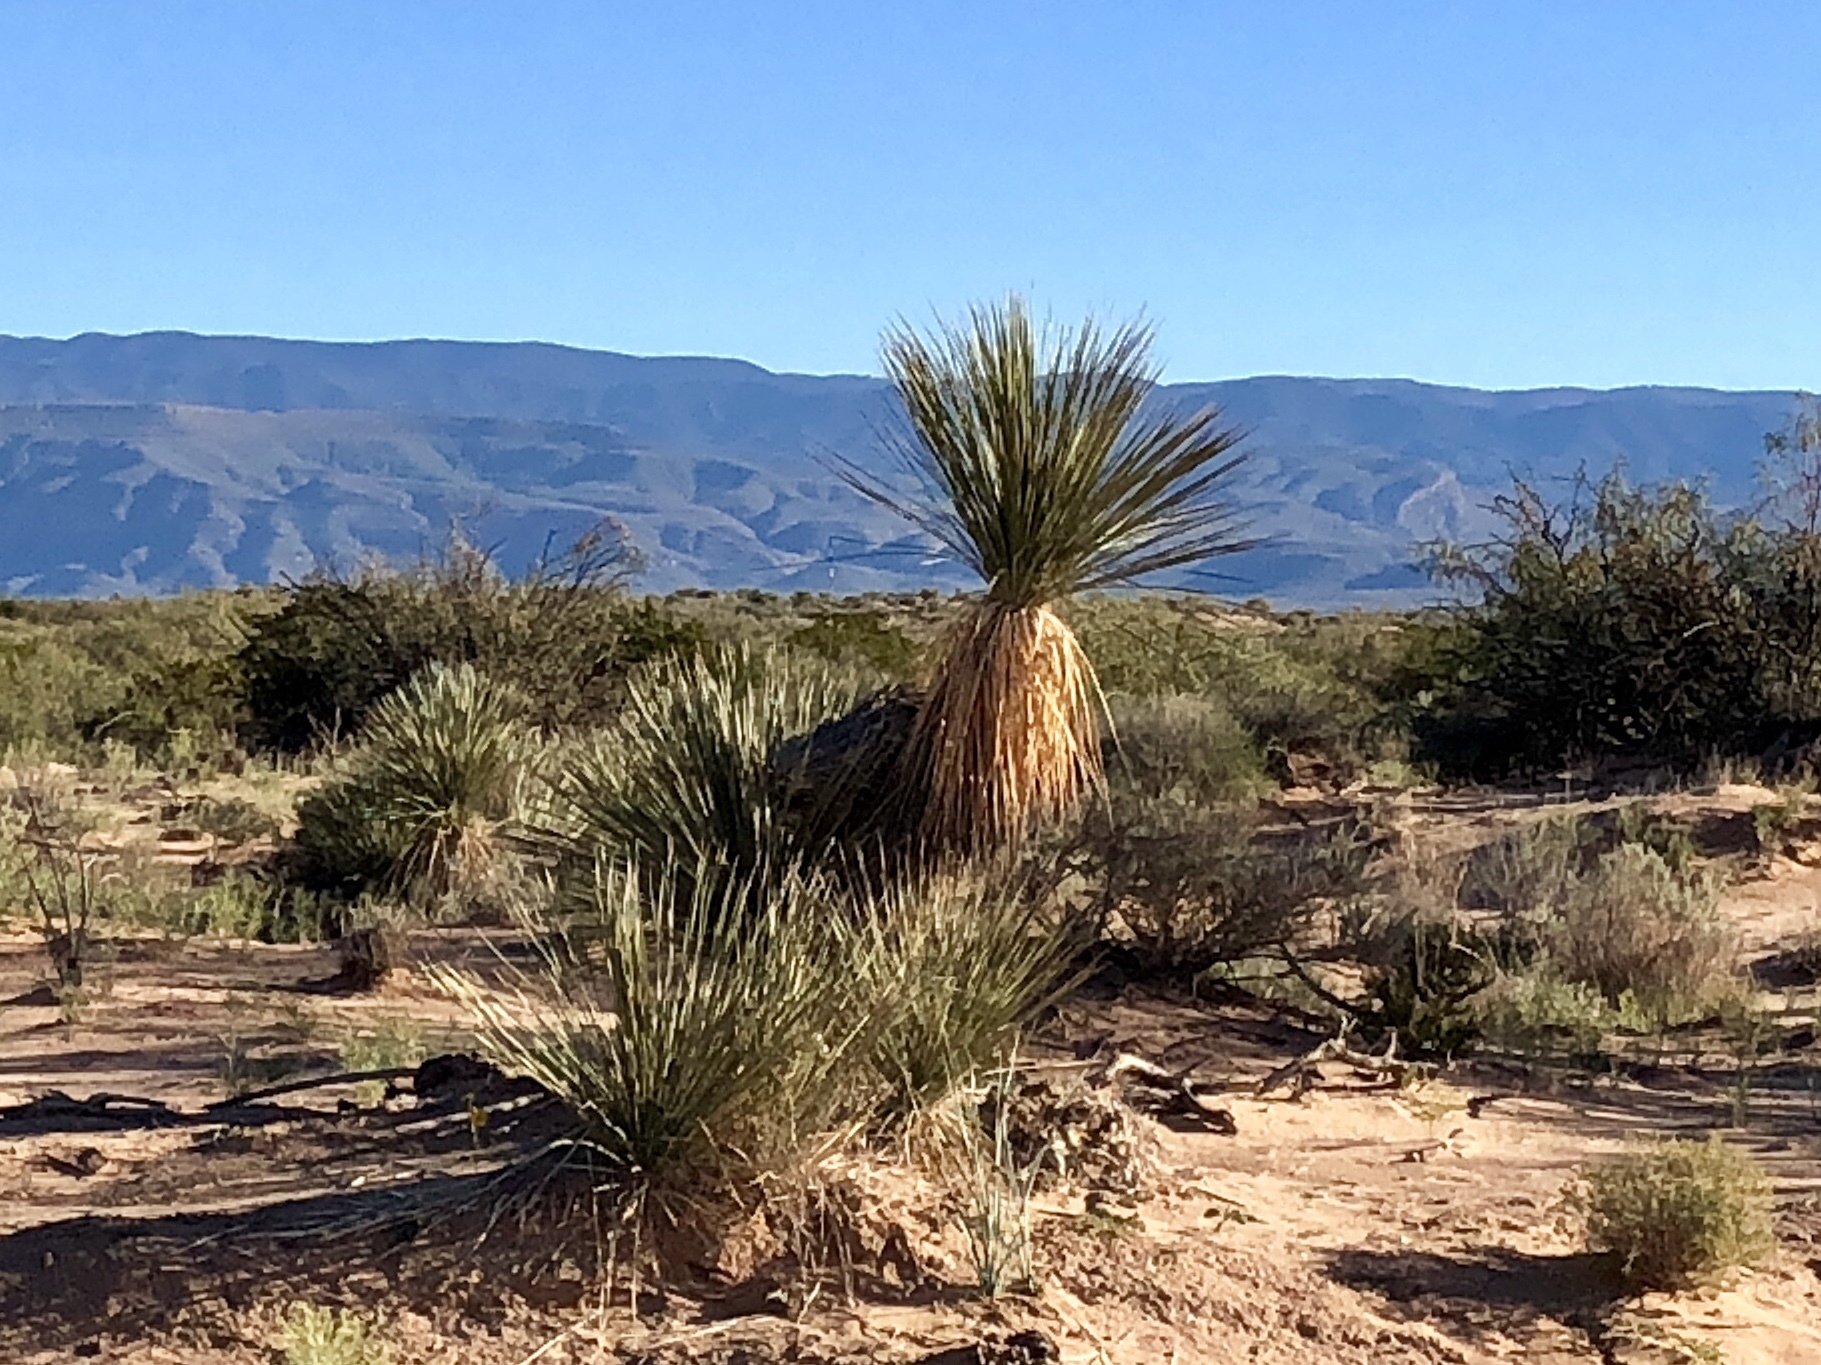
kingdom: Plantae
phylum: Tracheophyta
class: Liliopsida
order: Asparagales
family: Asparagaceae
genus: Yucca
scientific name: Yucca elata
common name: Palmella
